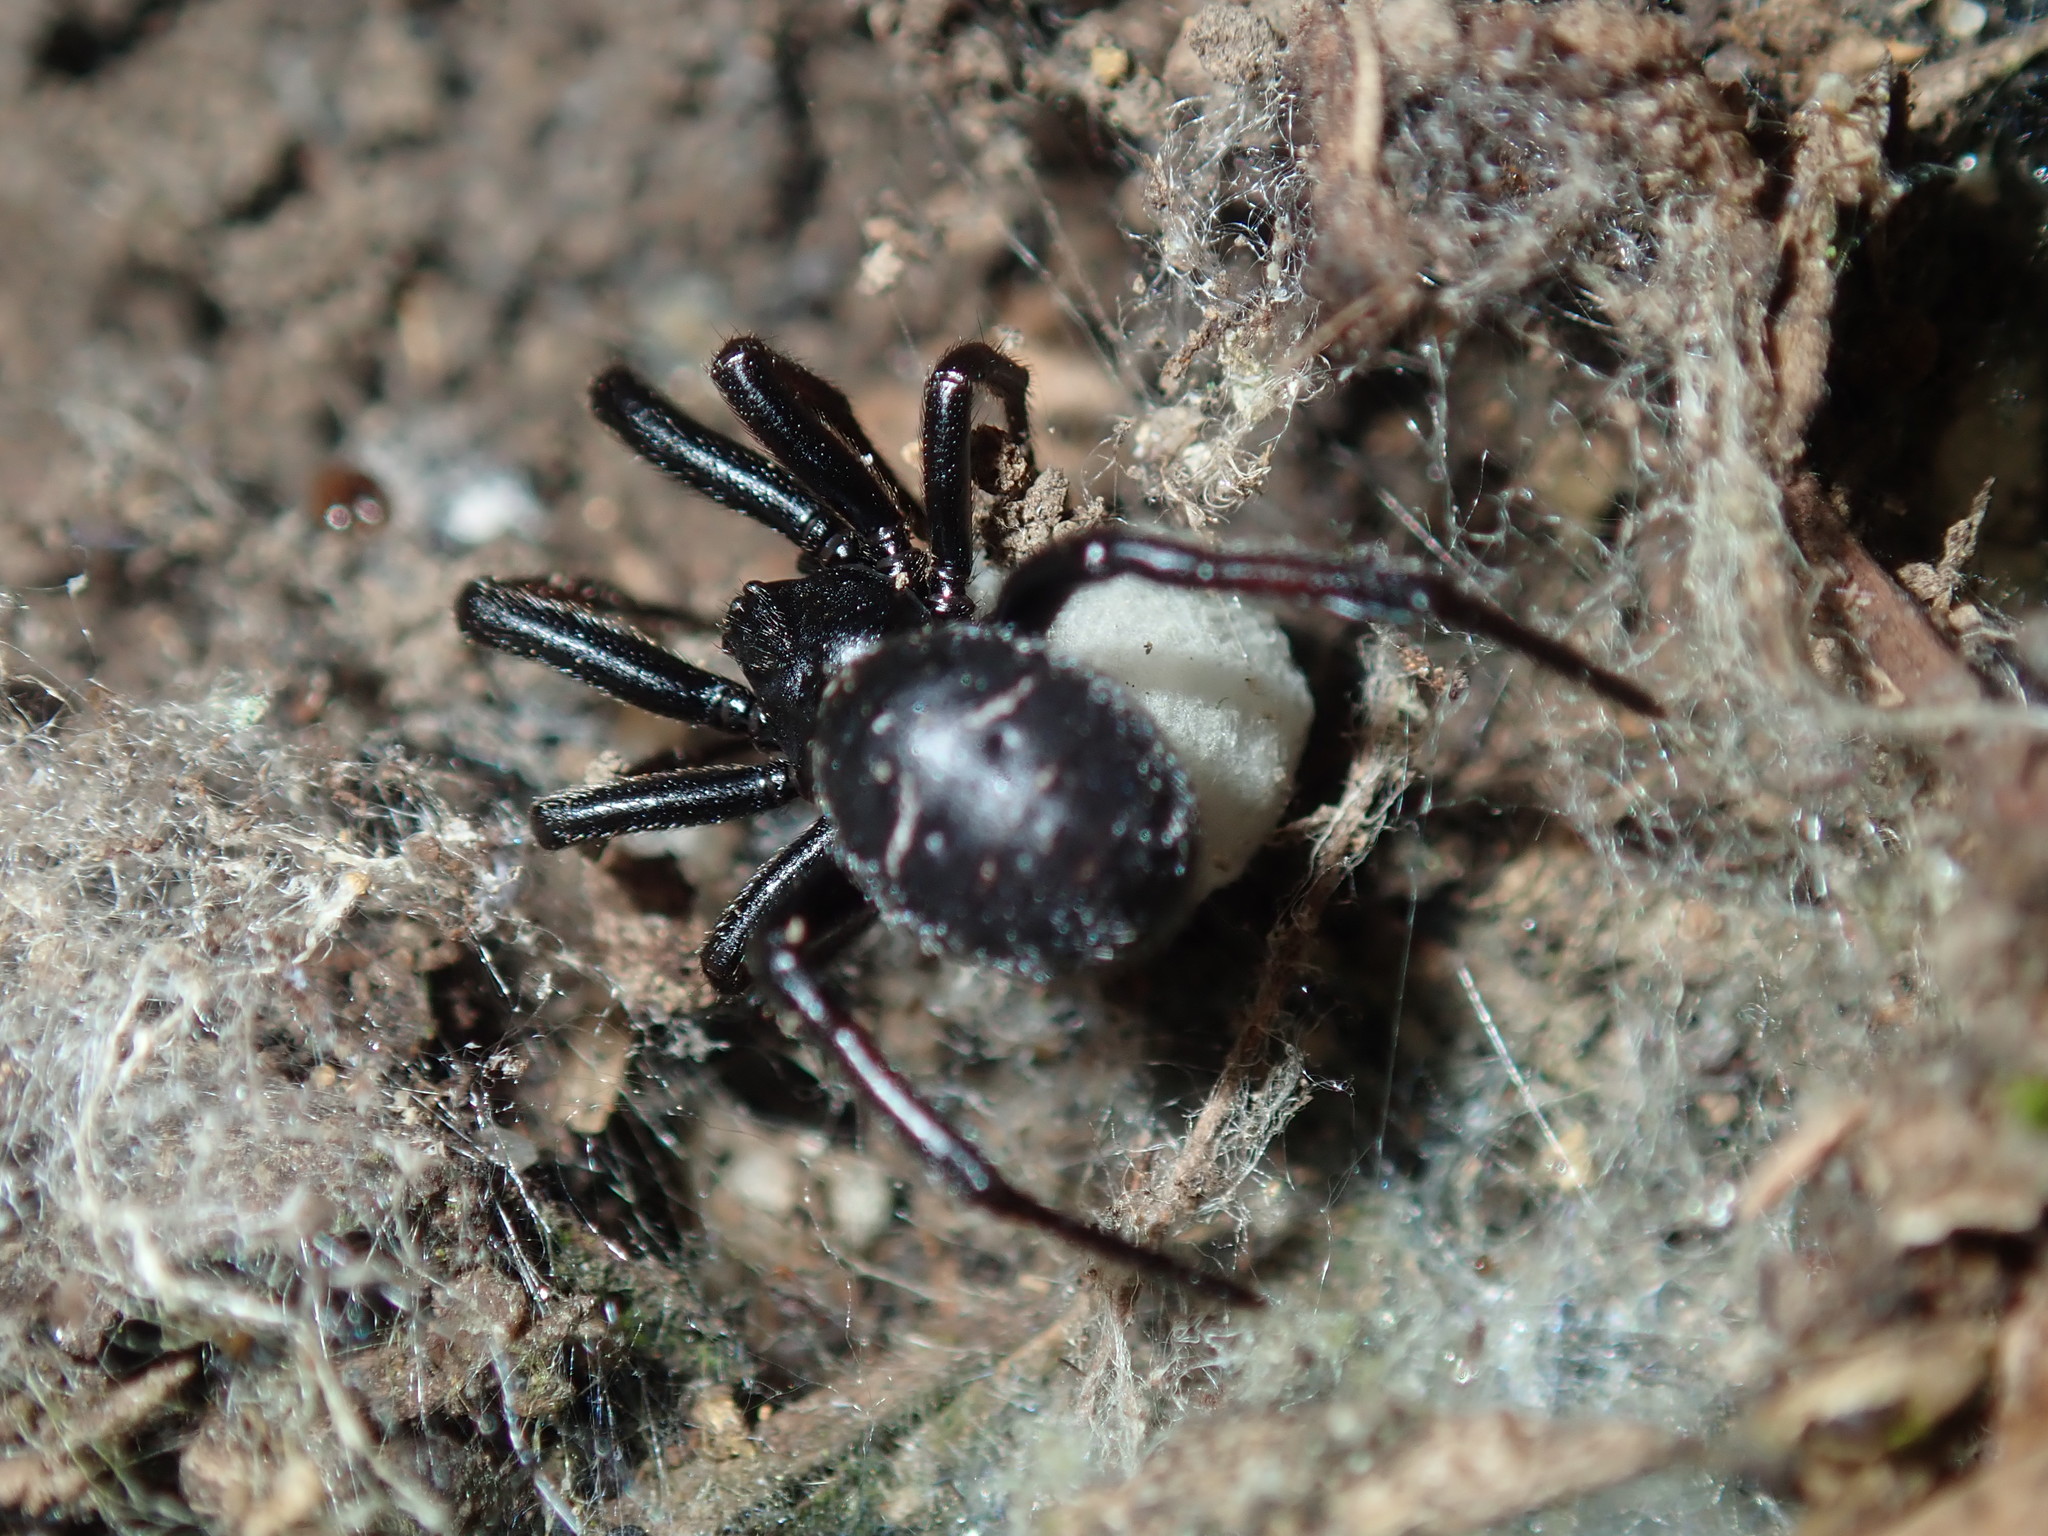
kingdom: Animalia
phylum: Arthropoda
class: Arachnida
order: Araneae
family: Theridiidae
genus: Steatoda
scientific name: Steatoda capensis
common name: Cobweb weaver
